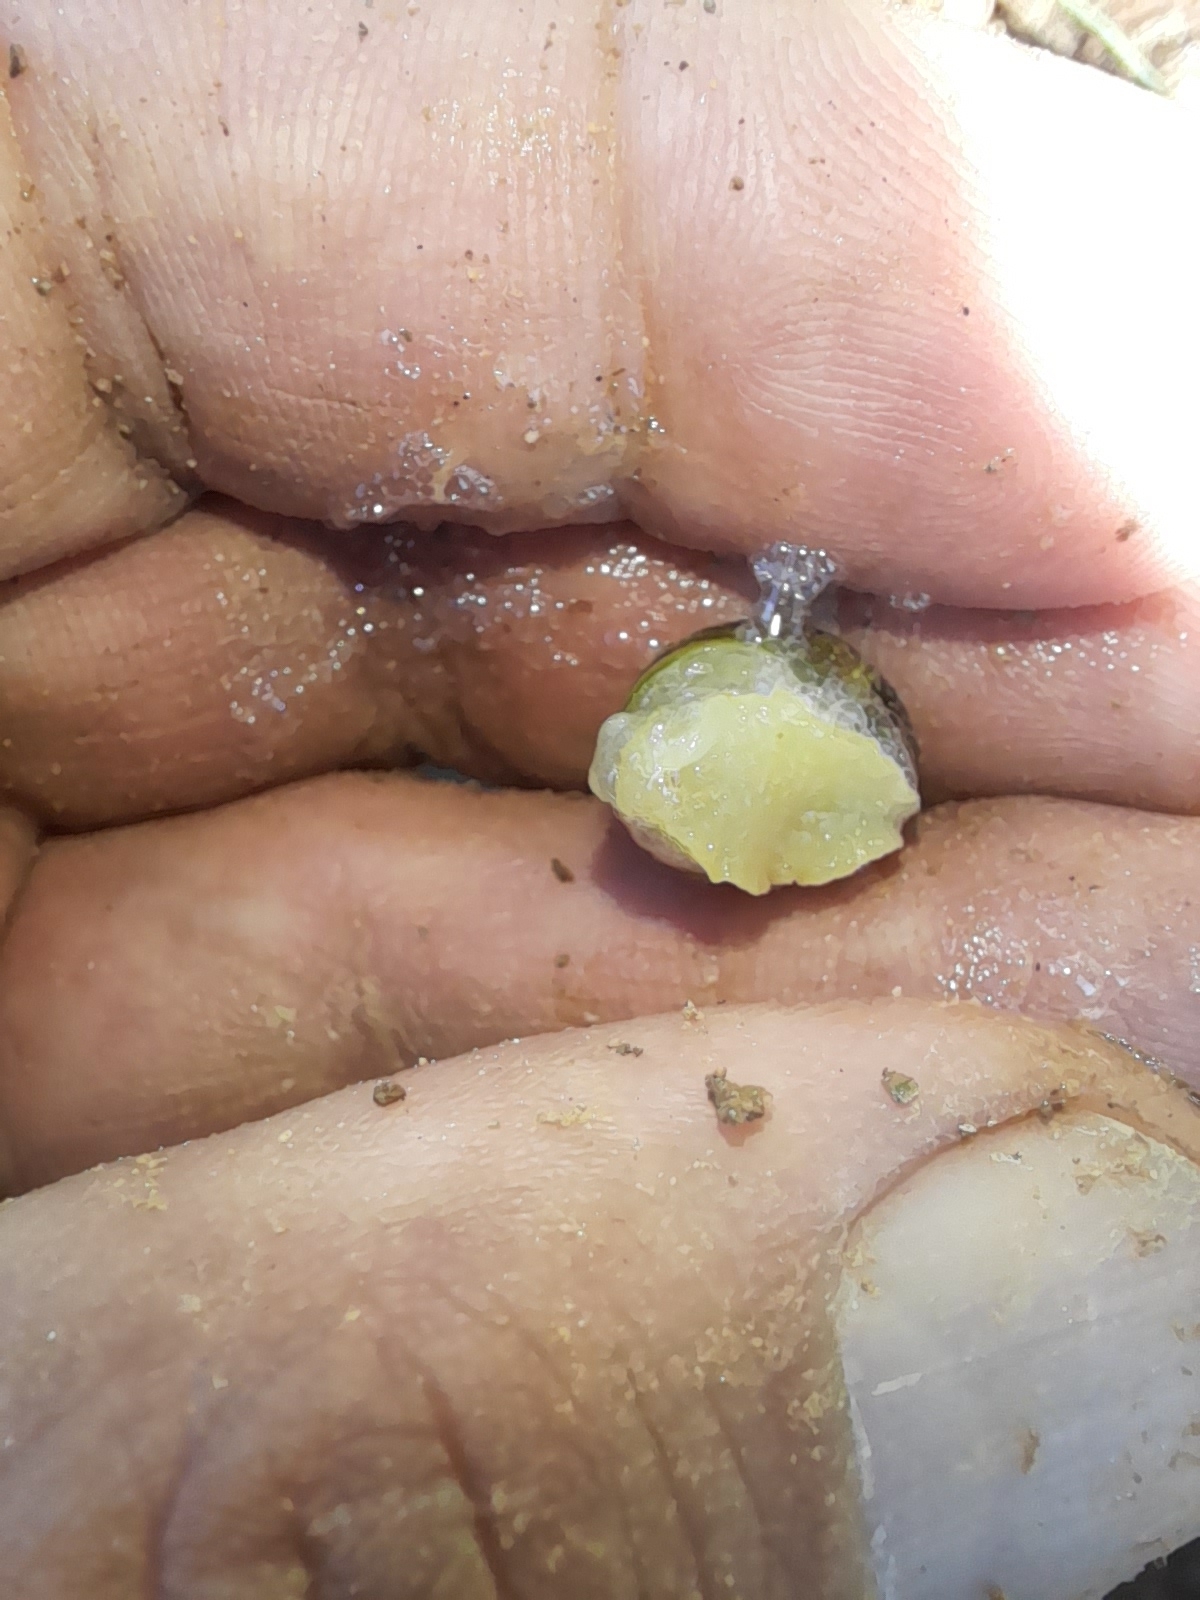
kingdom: Animalia
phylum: Mollusca
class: Gastropoda
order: Stylommatophora
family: Helicidae
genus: Cantareus
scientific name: Cantareus apertus
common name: Green gardensnail
